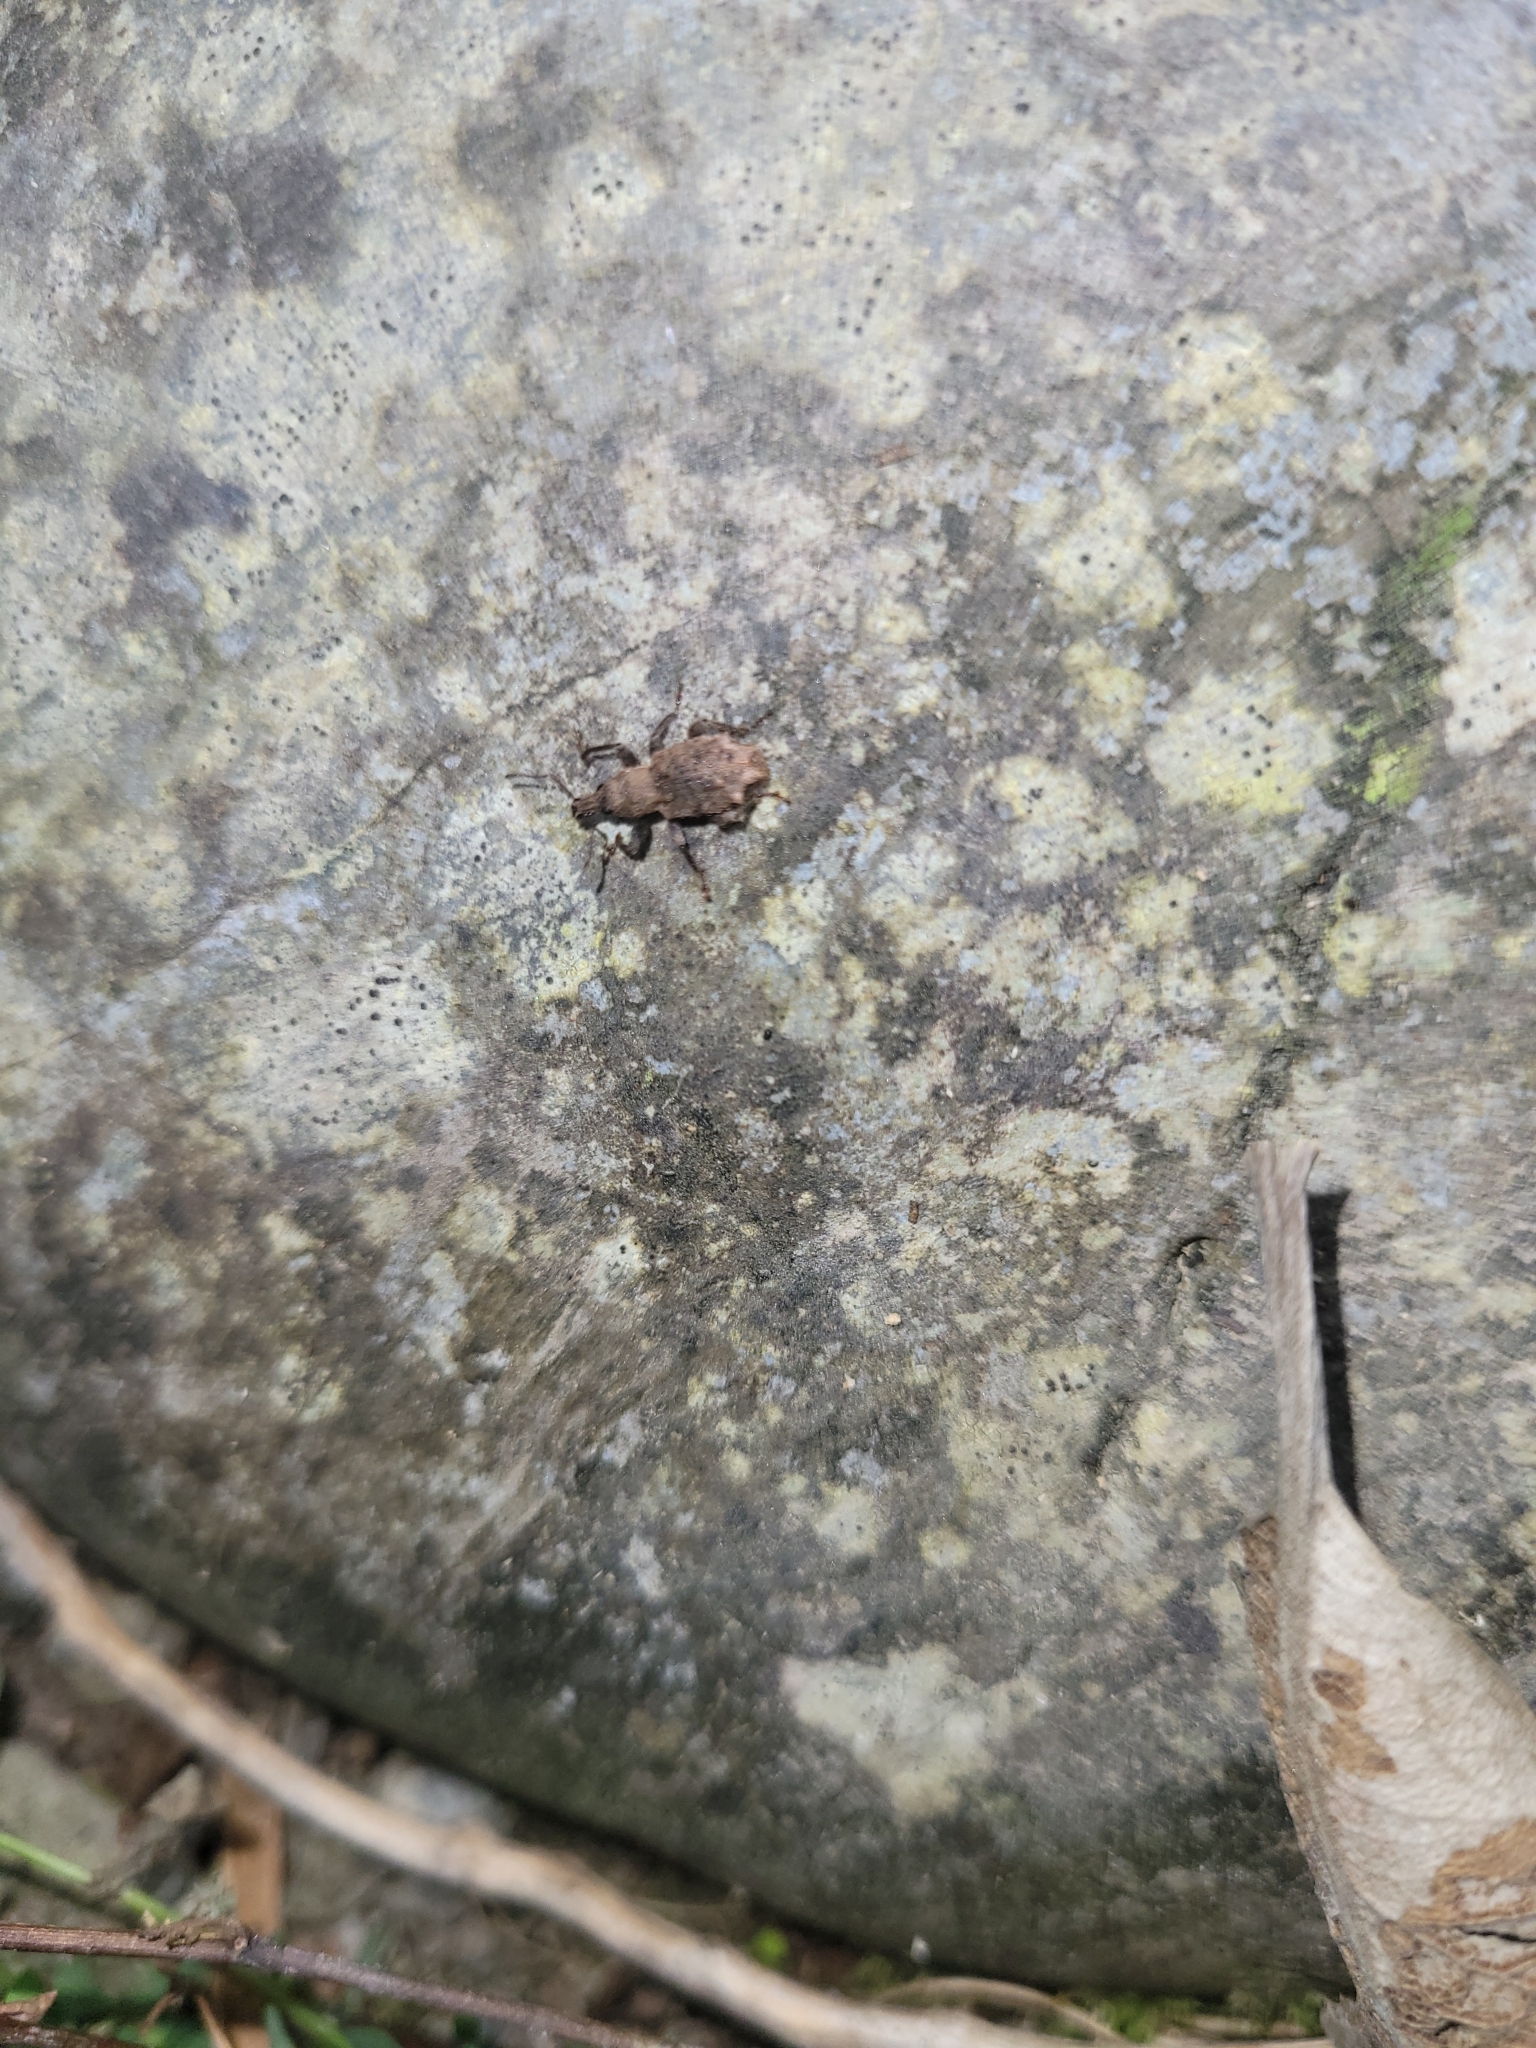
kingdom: Animalia
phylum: Arthropoda
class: Insecta
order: Coleoptera
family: Curculionidae
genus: Catoptes
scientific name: Catoptes coronatus
